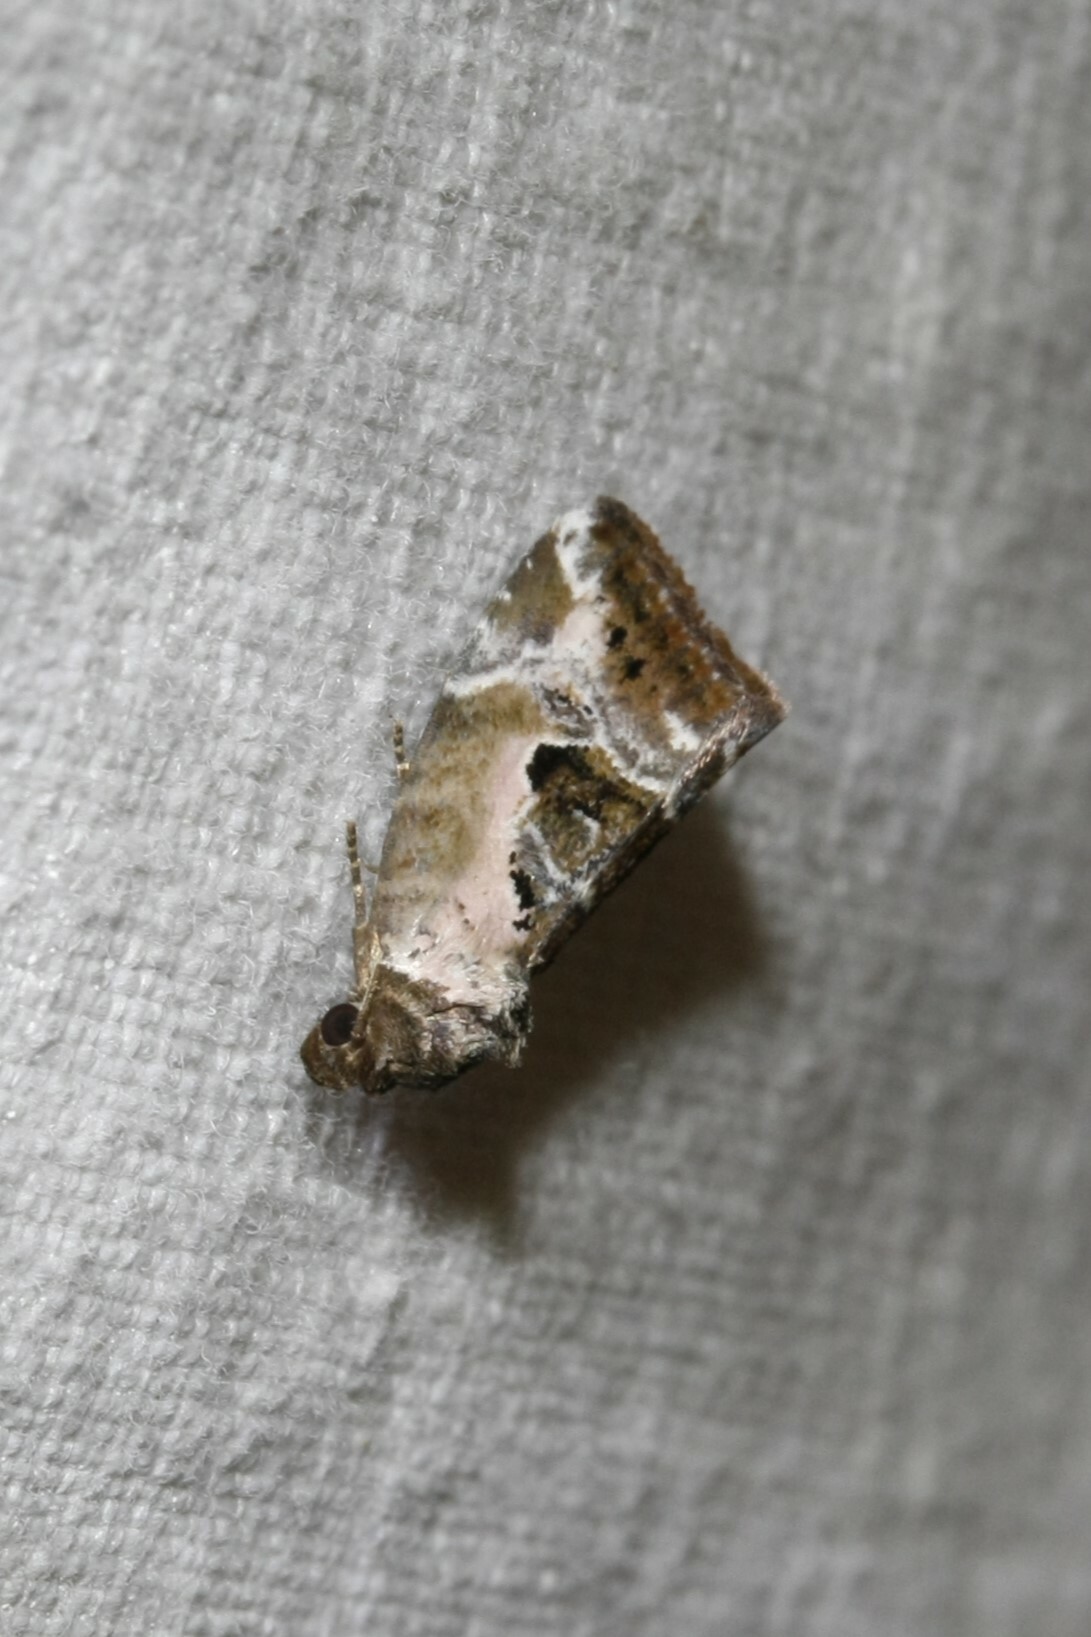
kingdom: Animalia
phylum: Arthropoda
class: Insecta
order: Lepidoptera
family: Noctuidae
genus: Elaphria
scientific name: Elaphria venustula
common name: Rosy marbled
